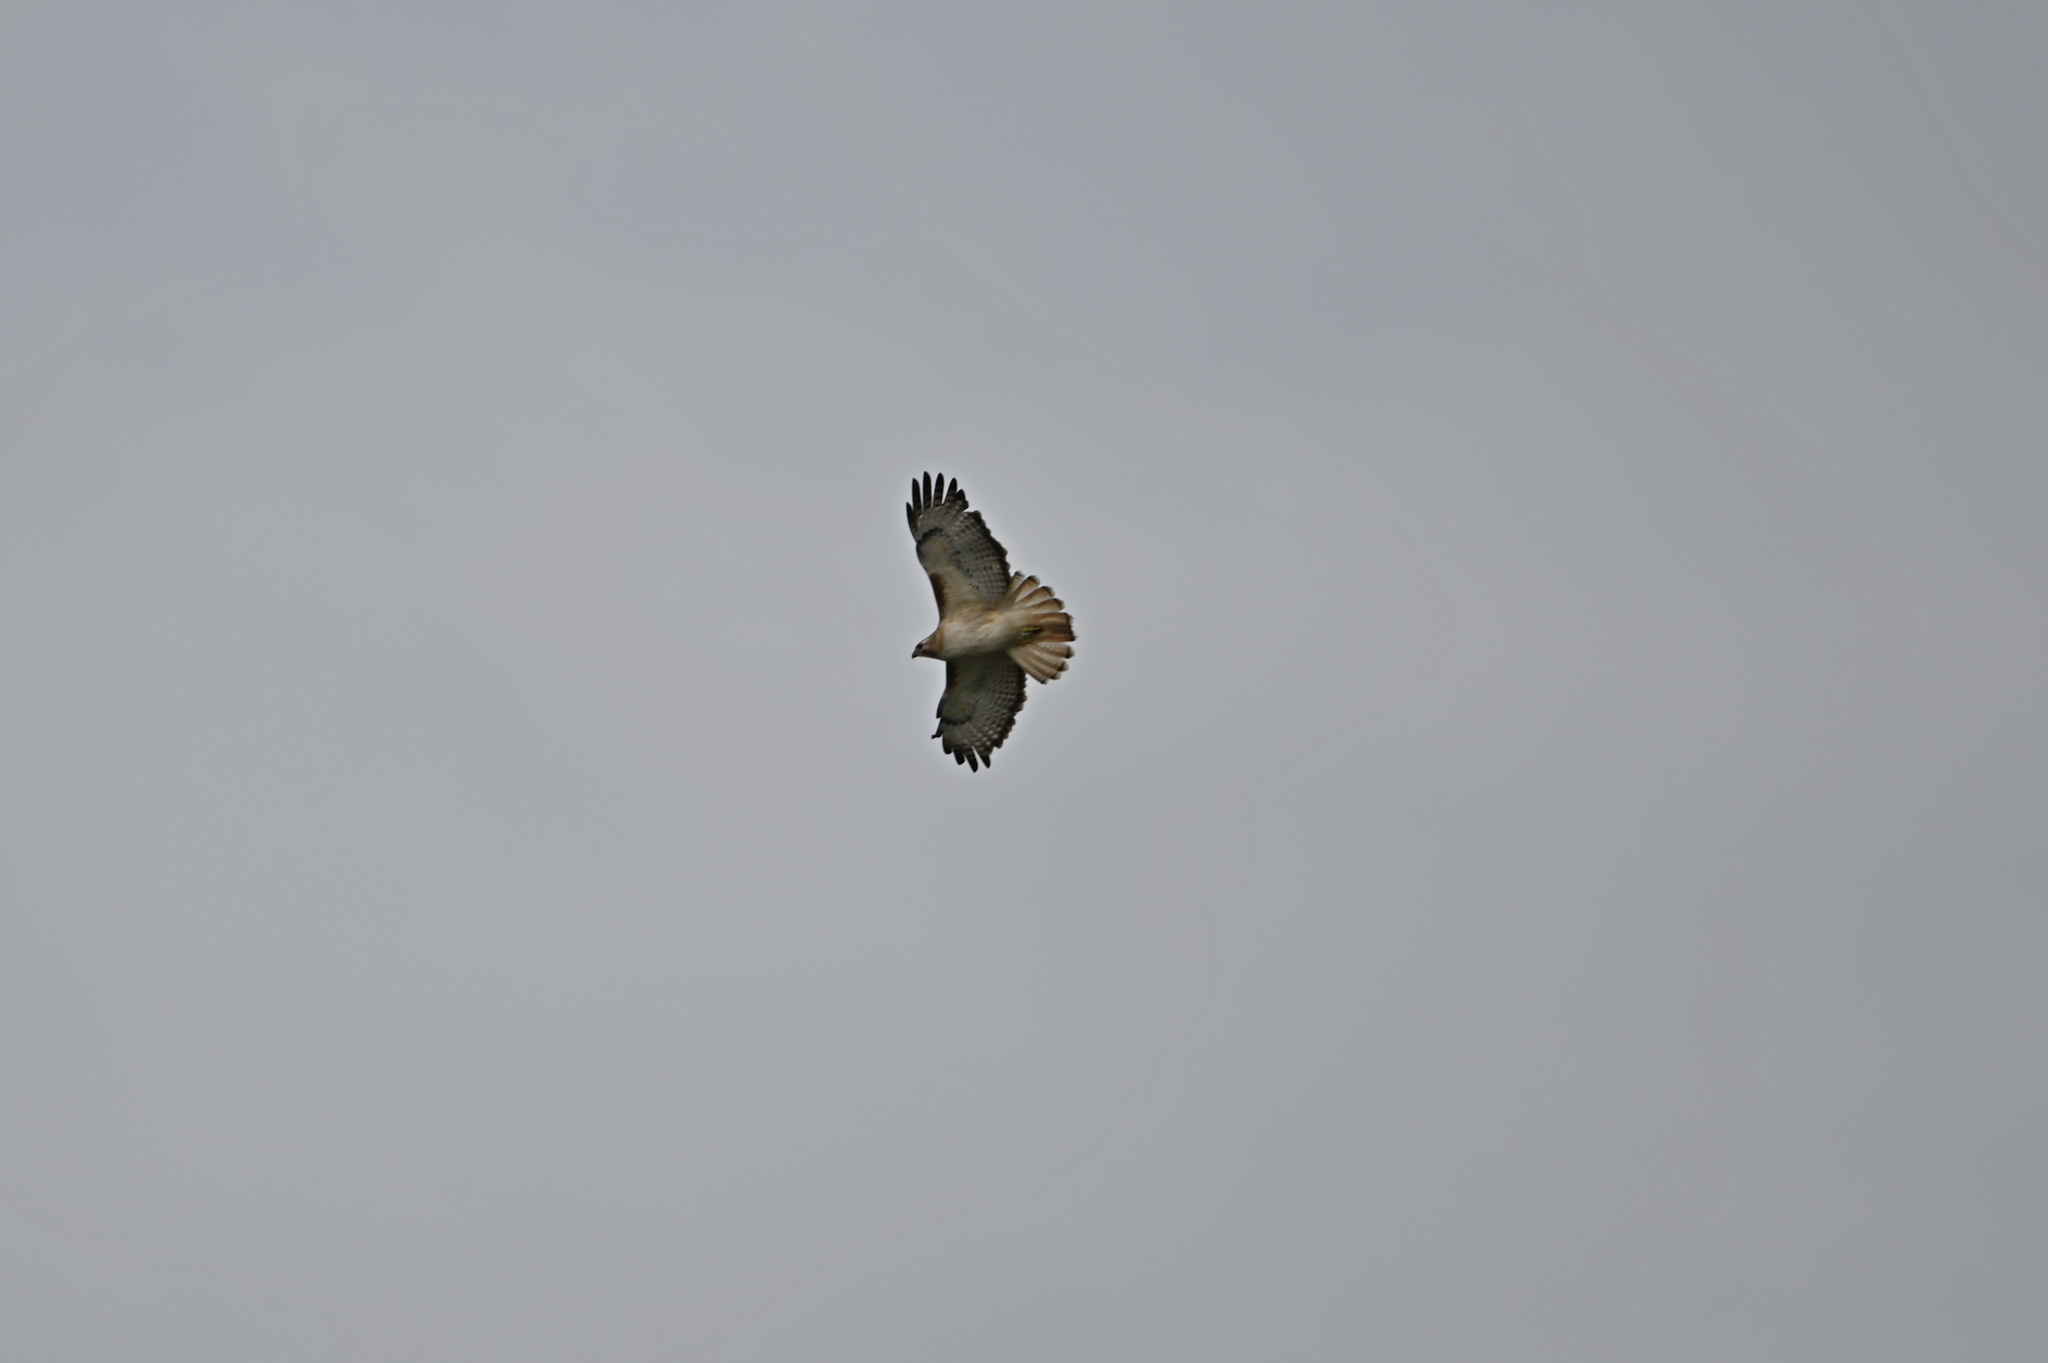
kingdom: Animalia
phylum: Chordata
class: Aves
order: Accipitriformes
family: Accipitridae
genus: Buteo
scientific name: Buteo jamaicensis
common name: Red-tailed hawk
